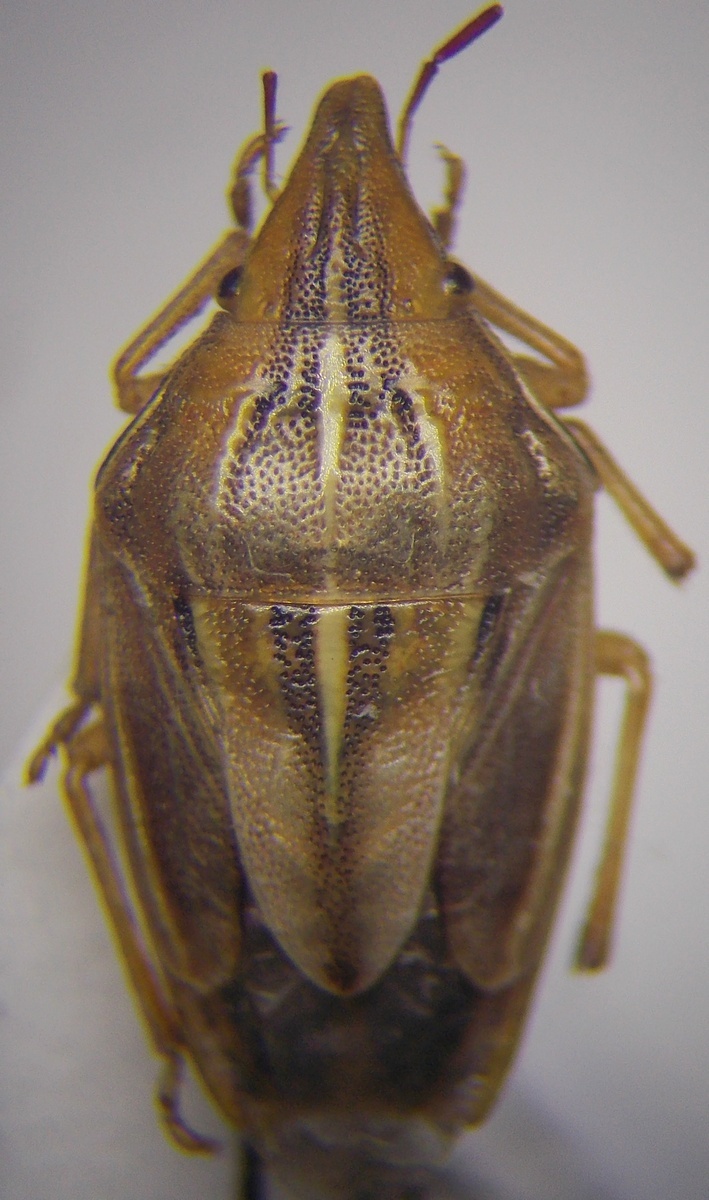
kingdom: Animalia
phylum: Arthropoda
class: Insecta
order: Hemiptera
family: Pentatomidae
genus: Aelia
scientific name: Aelia rostrata
